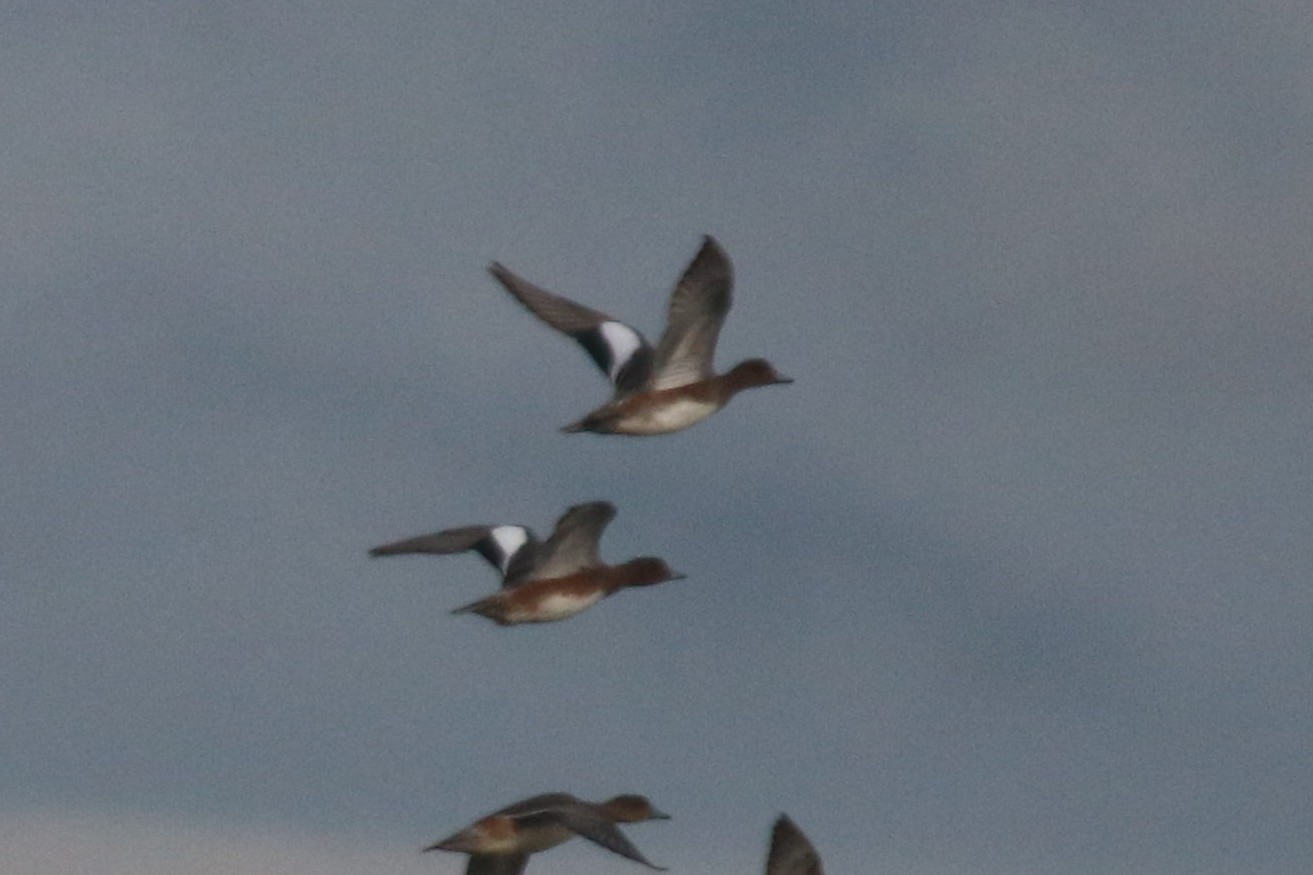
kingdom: Animalia
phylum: Chordata
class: Aves
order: Anseriformes
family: Anatidae
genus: Mareca
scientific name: Mareca penelope
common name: Eurasian wigeon
